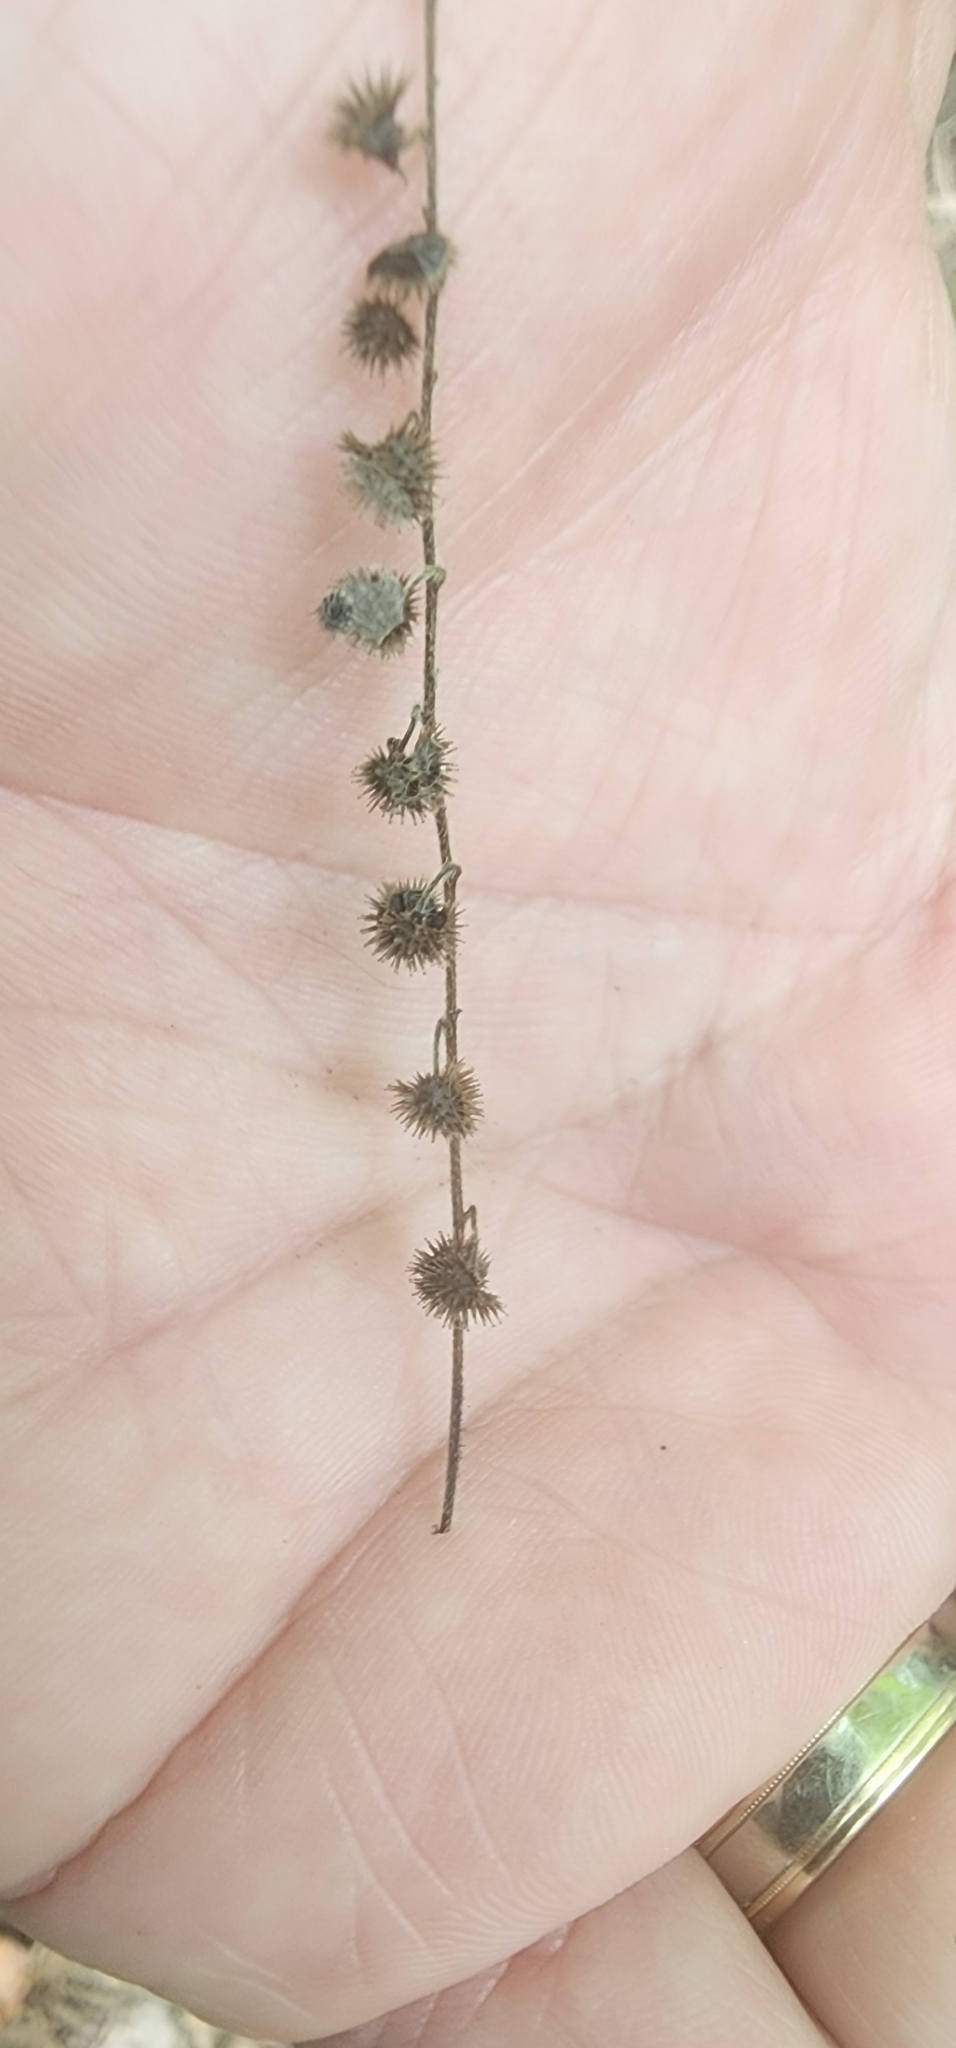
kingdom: Plantae
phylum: Tracheophyta
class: Magnoliopsida
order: Boraginales
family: Boraginaceae
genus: Hackelia
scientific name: Hackelia virginiana
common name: Beggar's-lice
